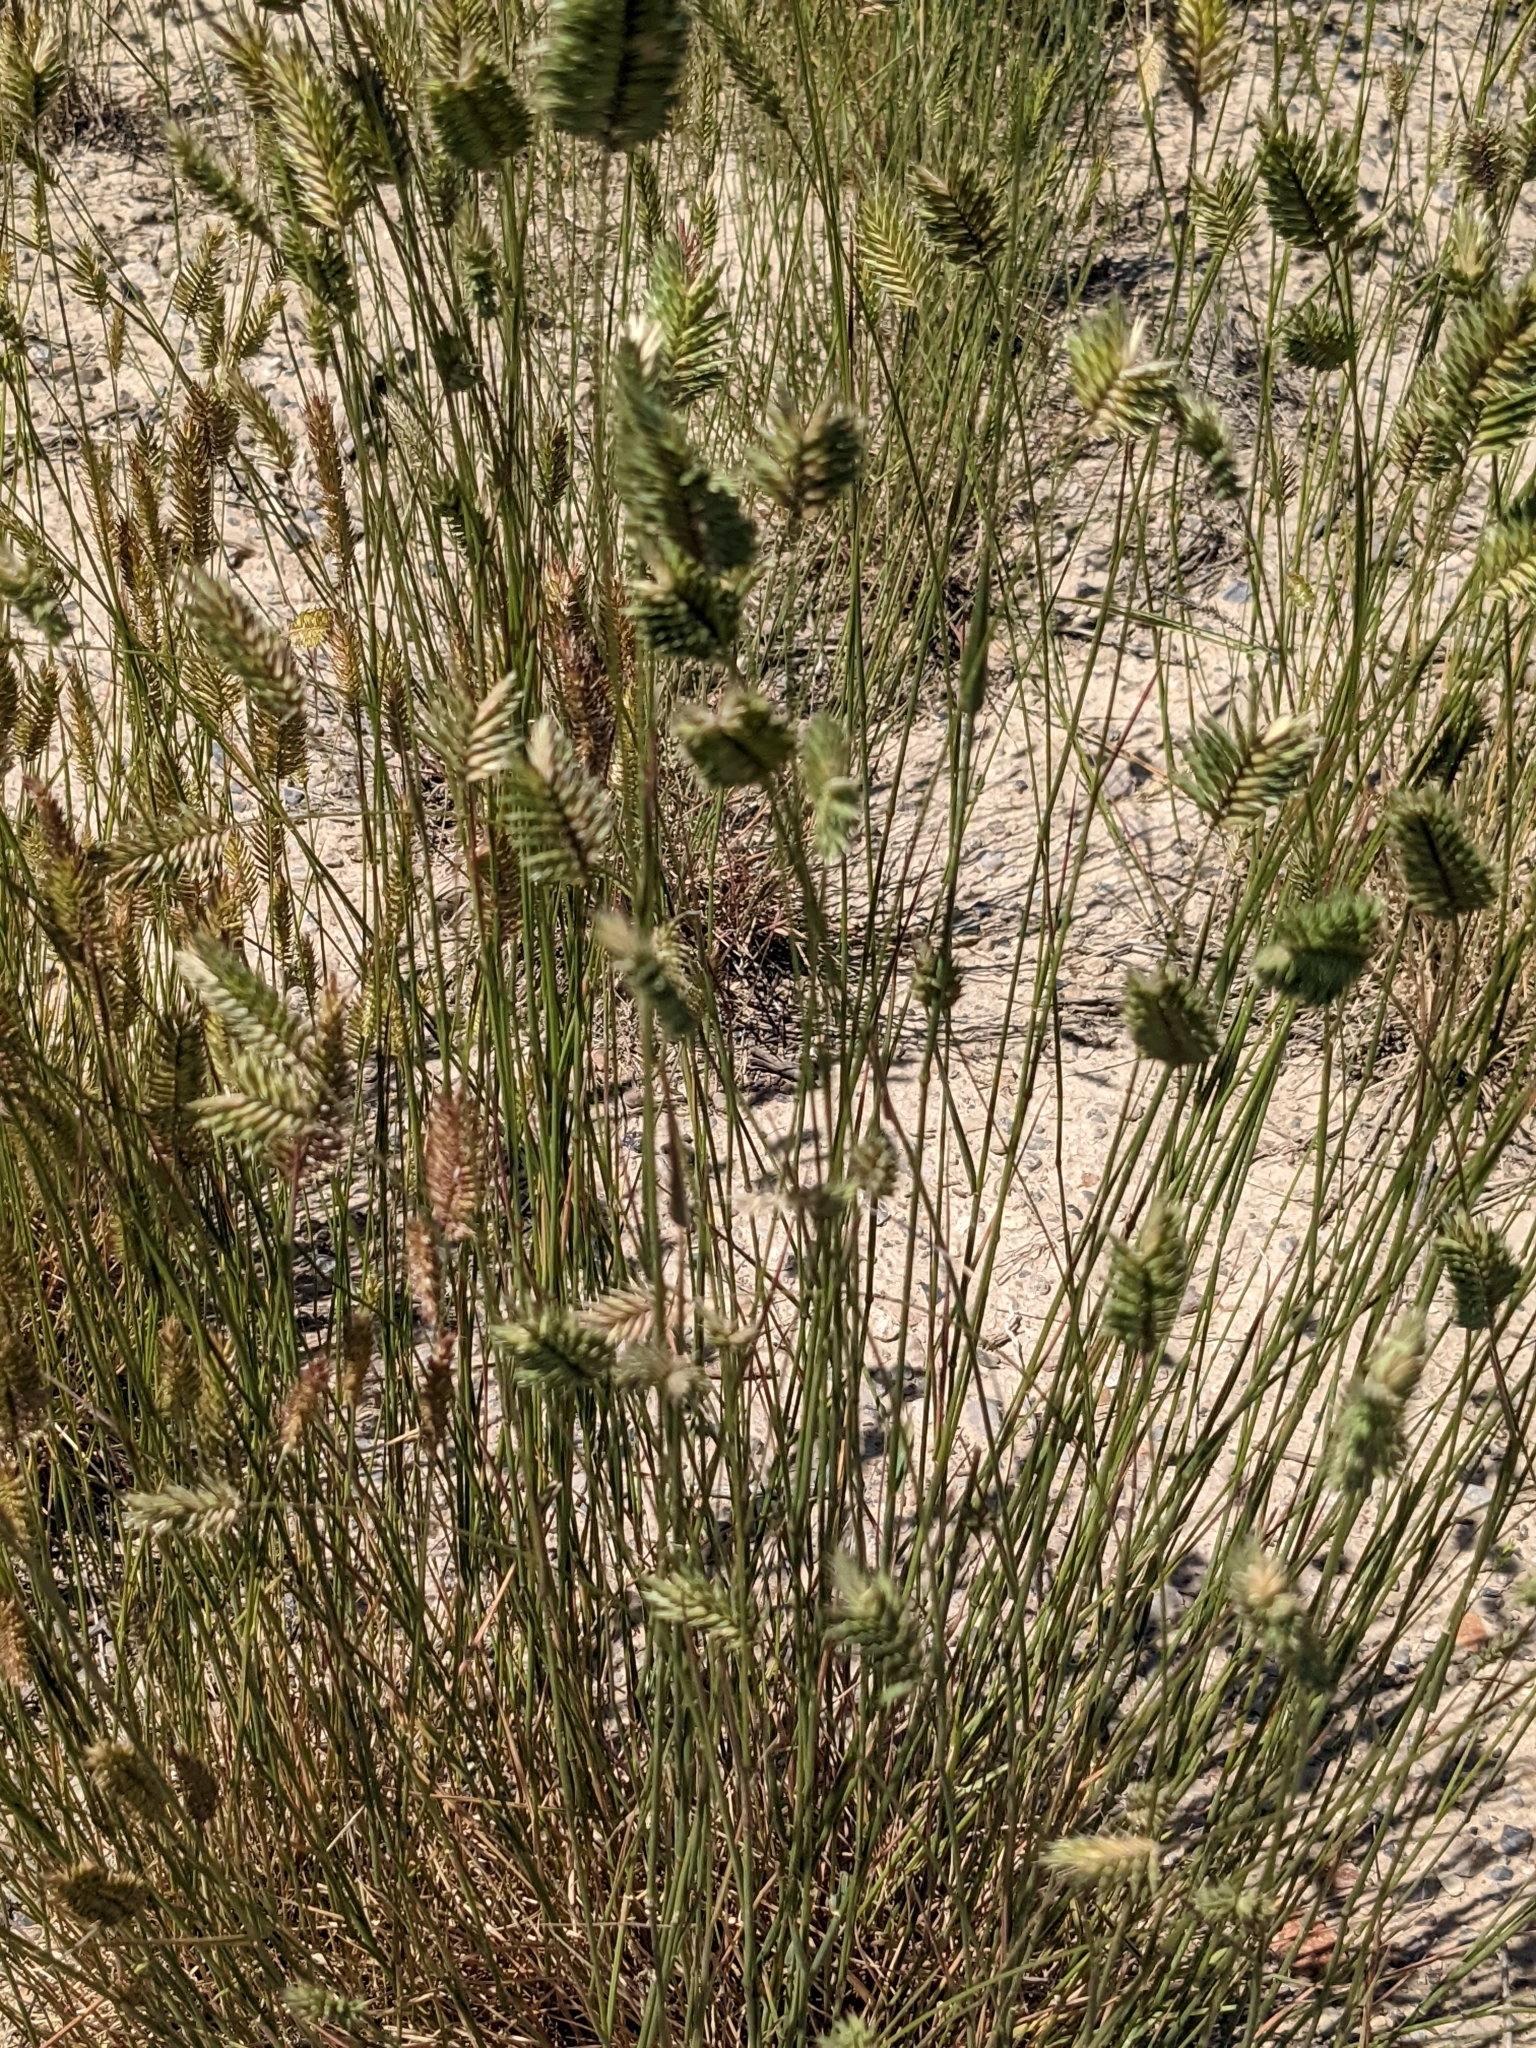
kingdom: Plantae
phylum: Tracheophyta
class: Liliopsida
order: Poales
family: Poaceae
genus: Agropyron
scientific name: Agropyron cristatum
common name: Crested wheatgrass
